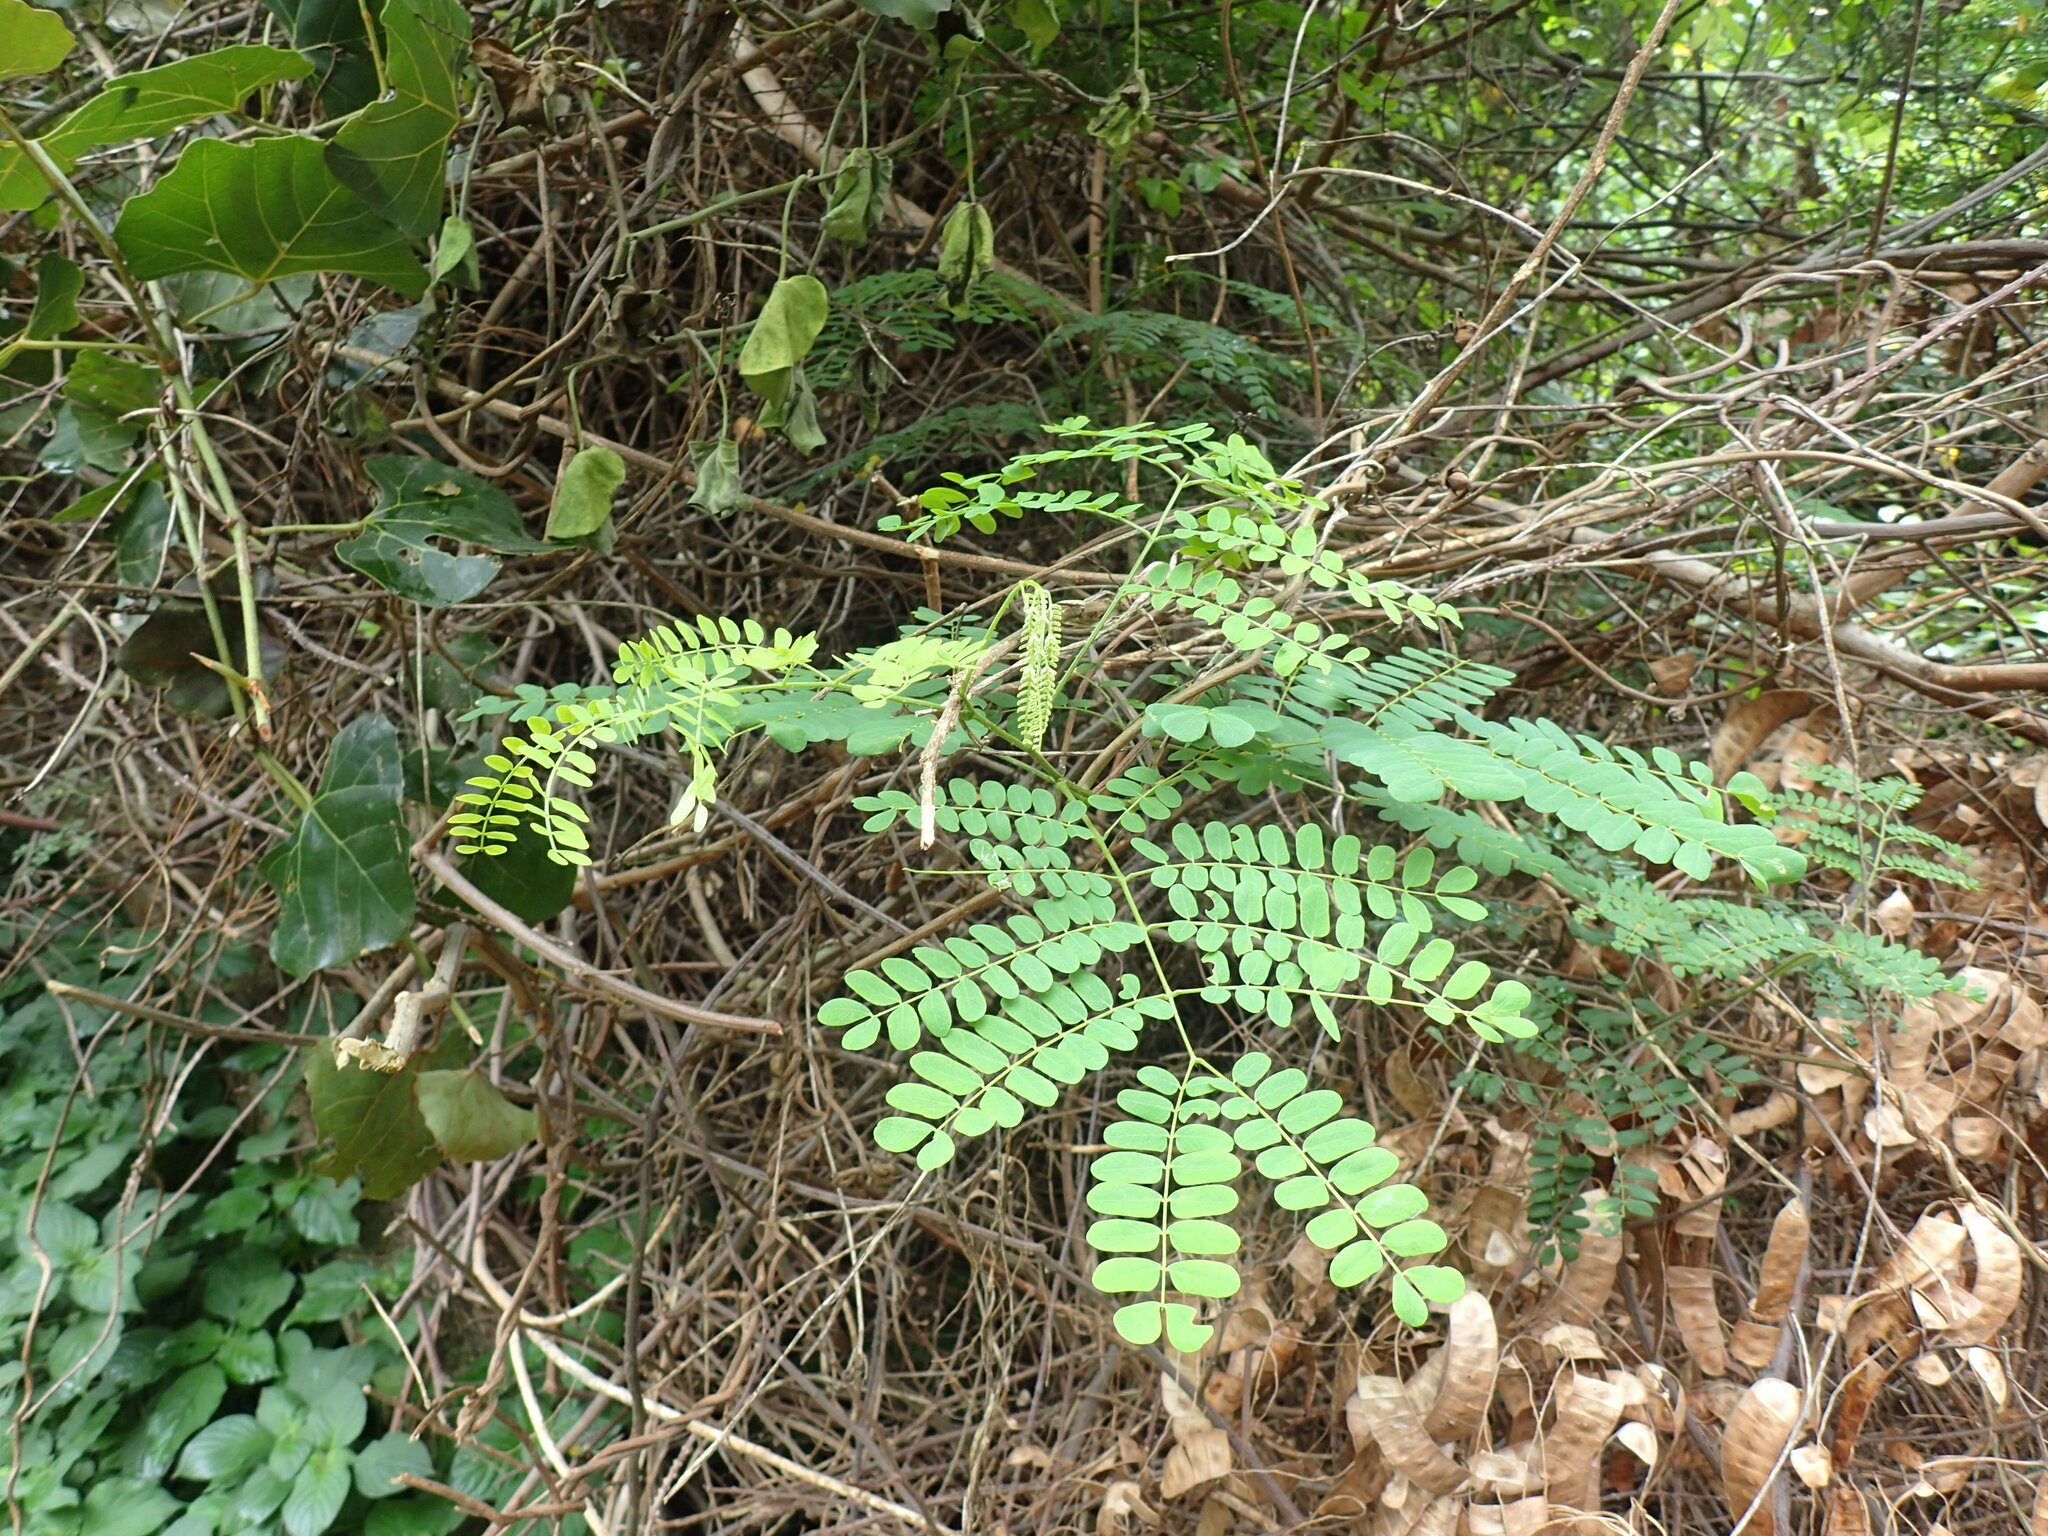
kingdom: Plantae
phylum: Tracheophyta
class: Magnoliopsida
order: Fabales
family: Fabaceae
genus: Adenopodia
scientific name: Adenopodia spicata
